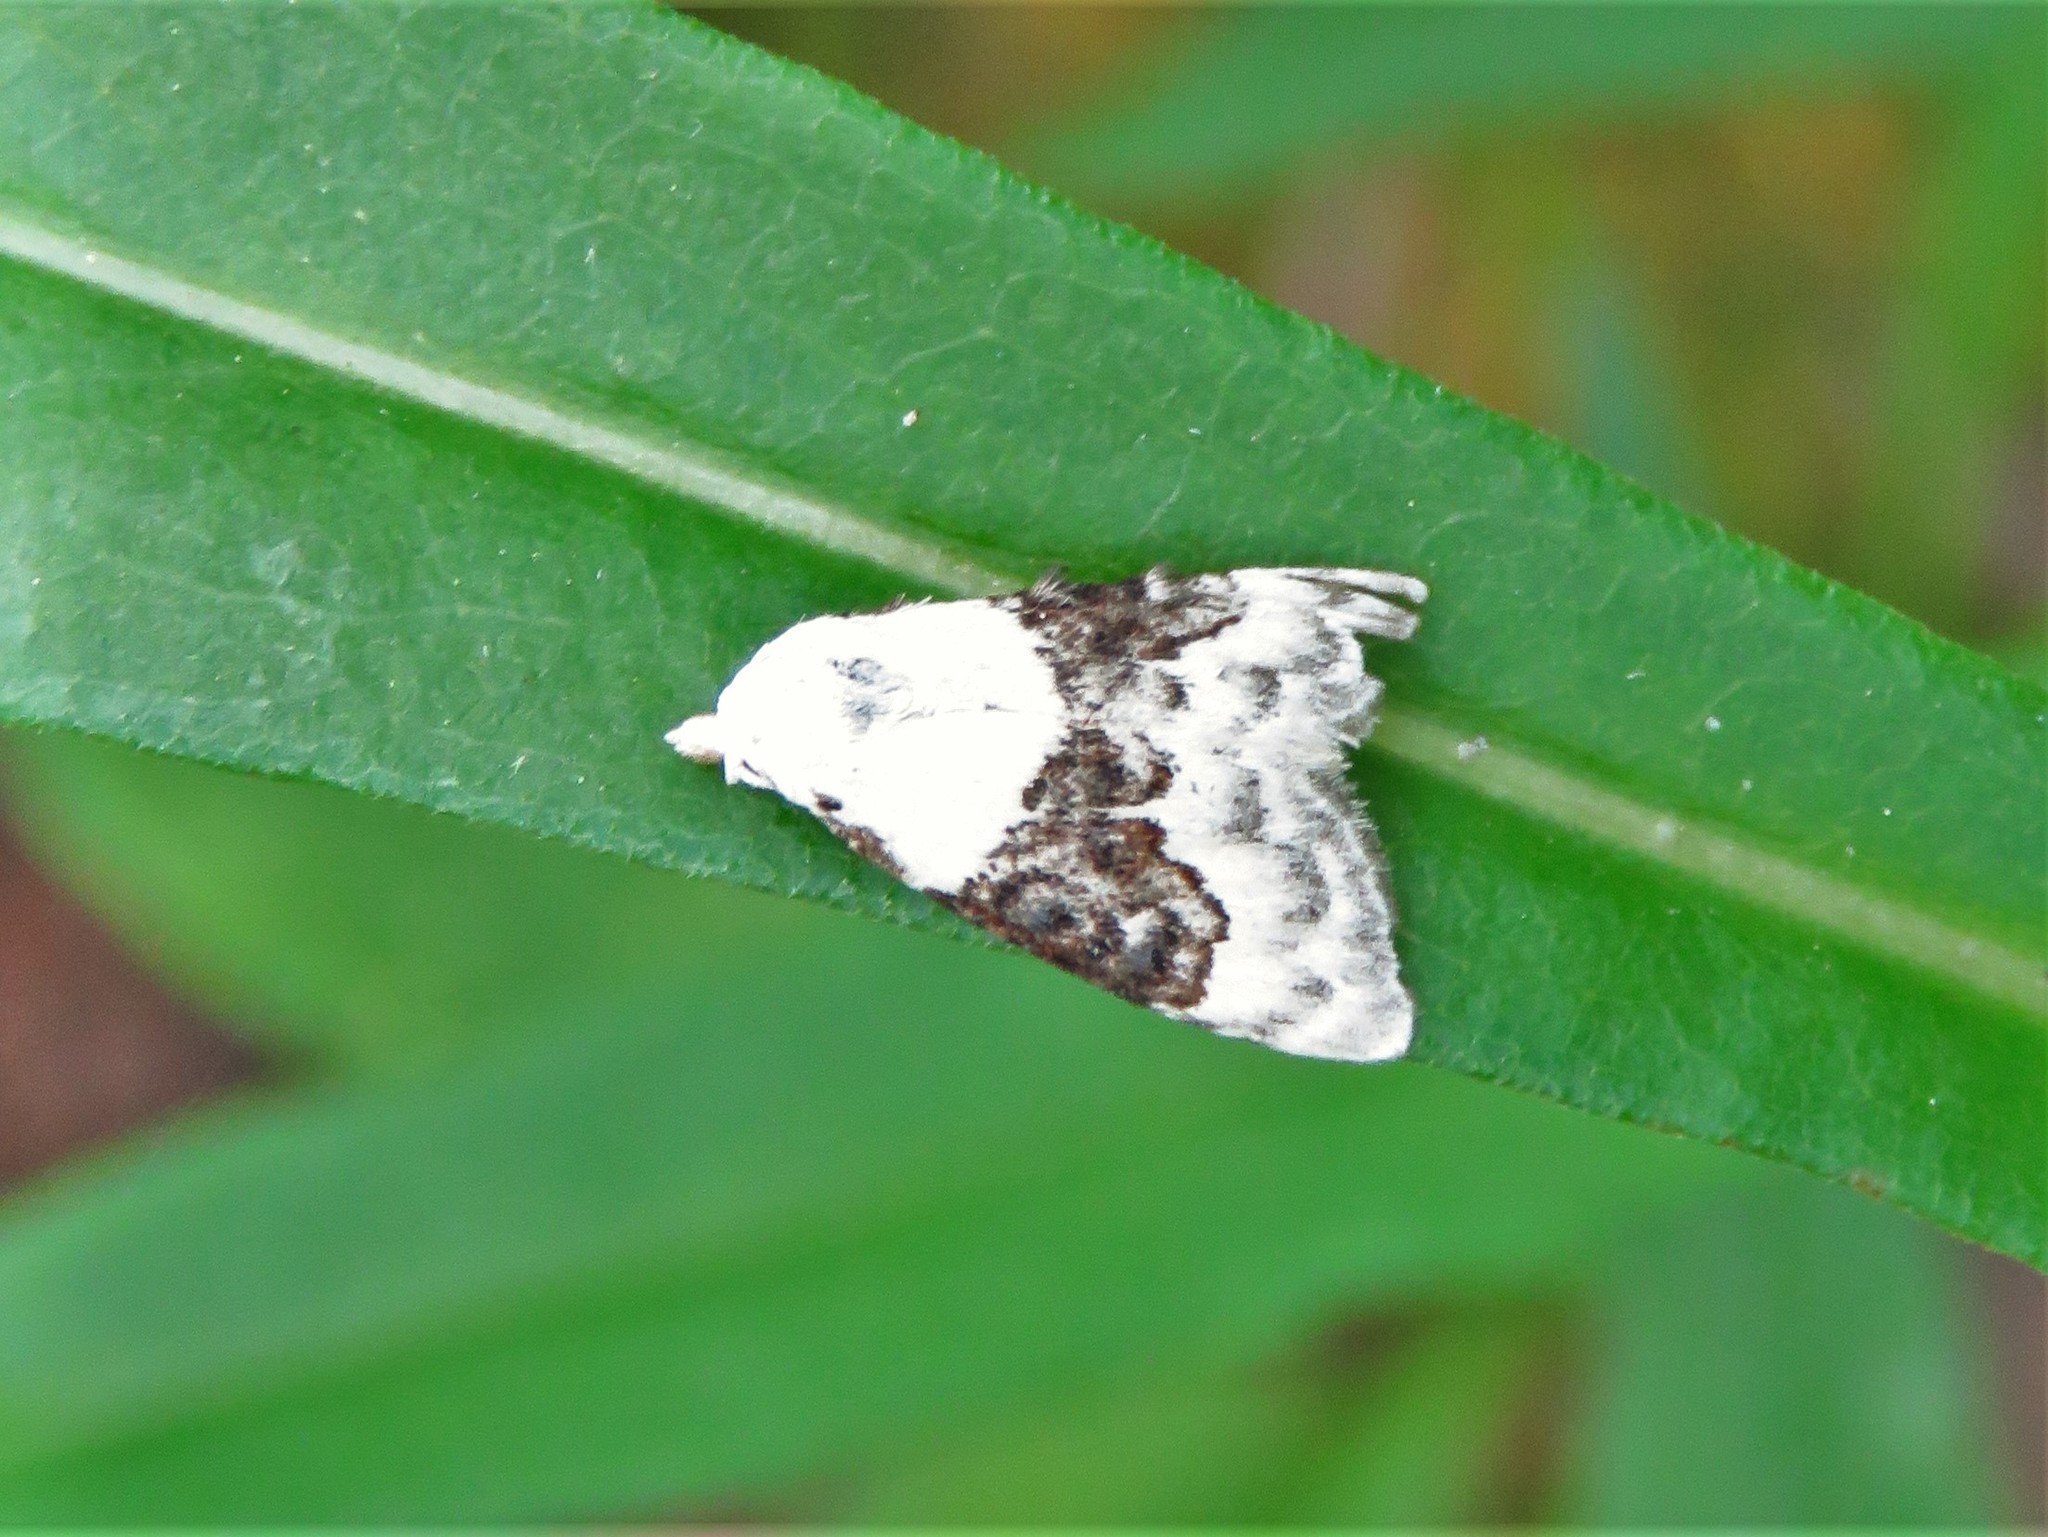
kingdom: Animalia
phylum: Arthropoda
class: Insecta
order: Lepidoptera
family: Nolidae
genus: Nola
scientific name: Nola pustulata
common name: Sharp-blotched nola moth
